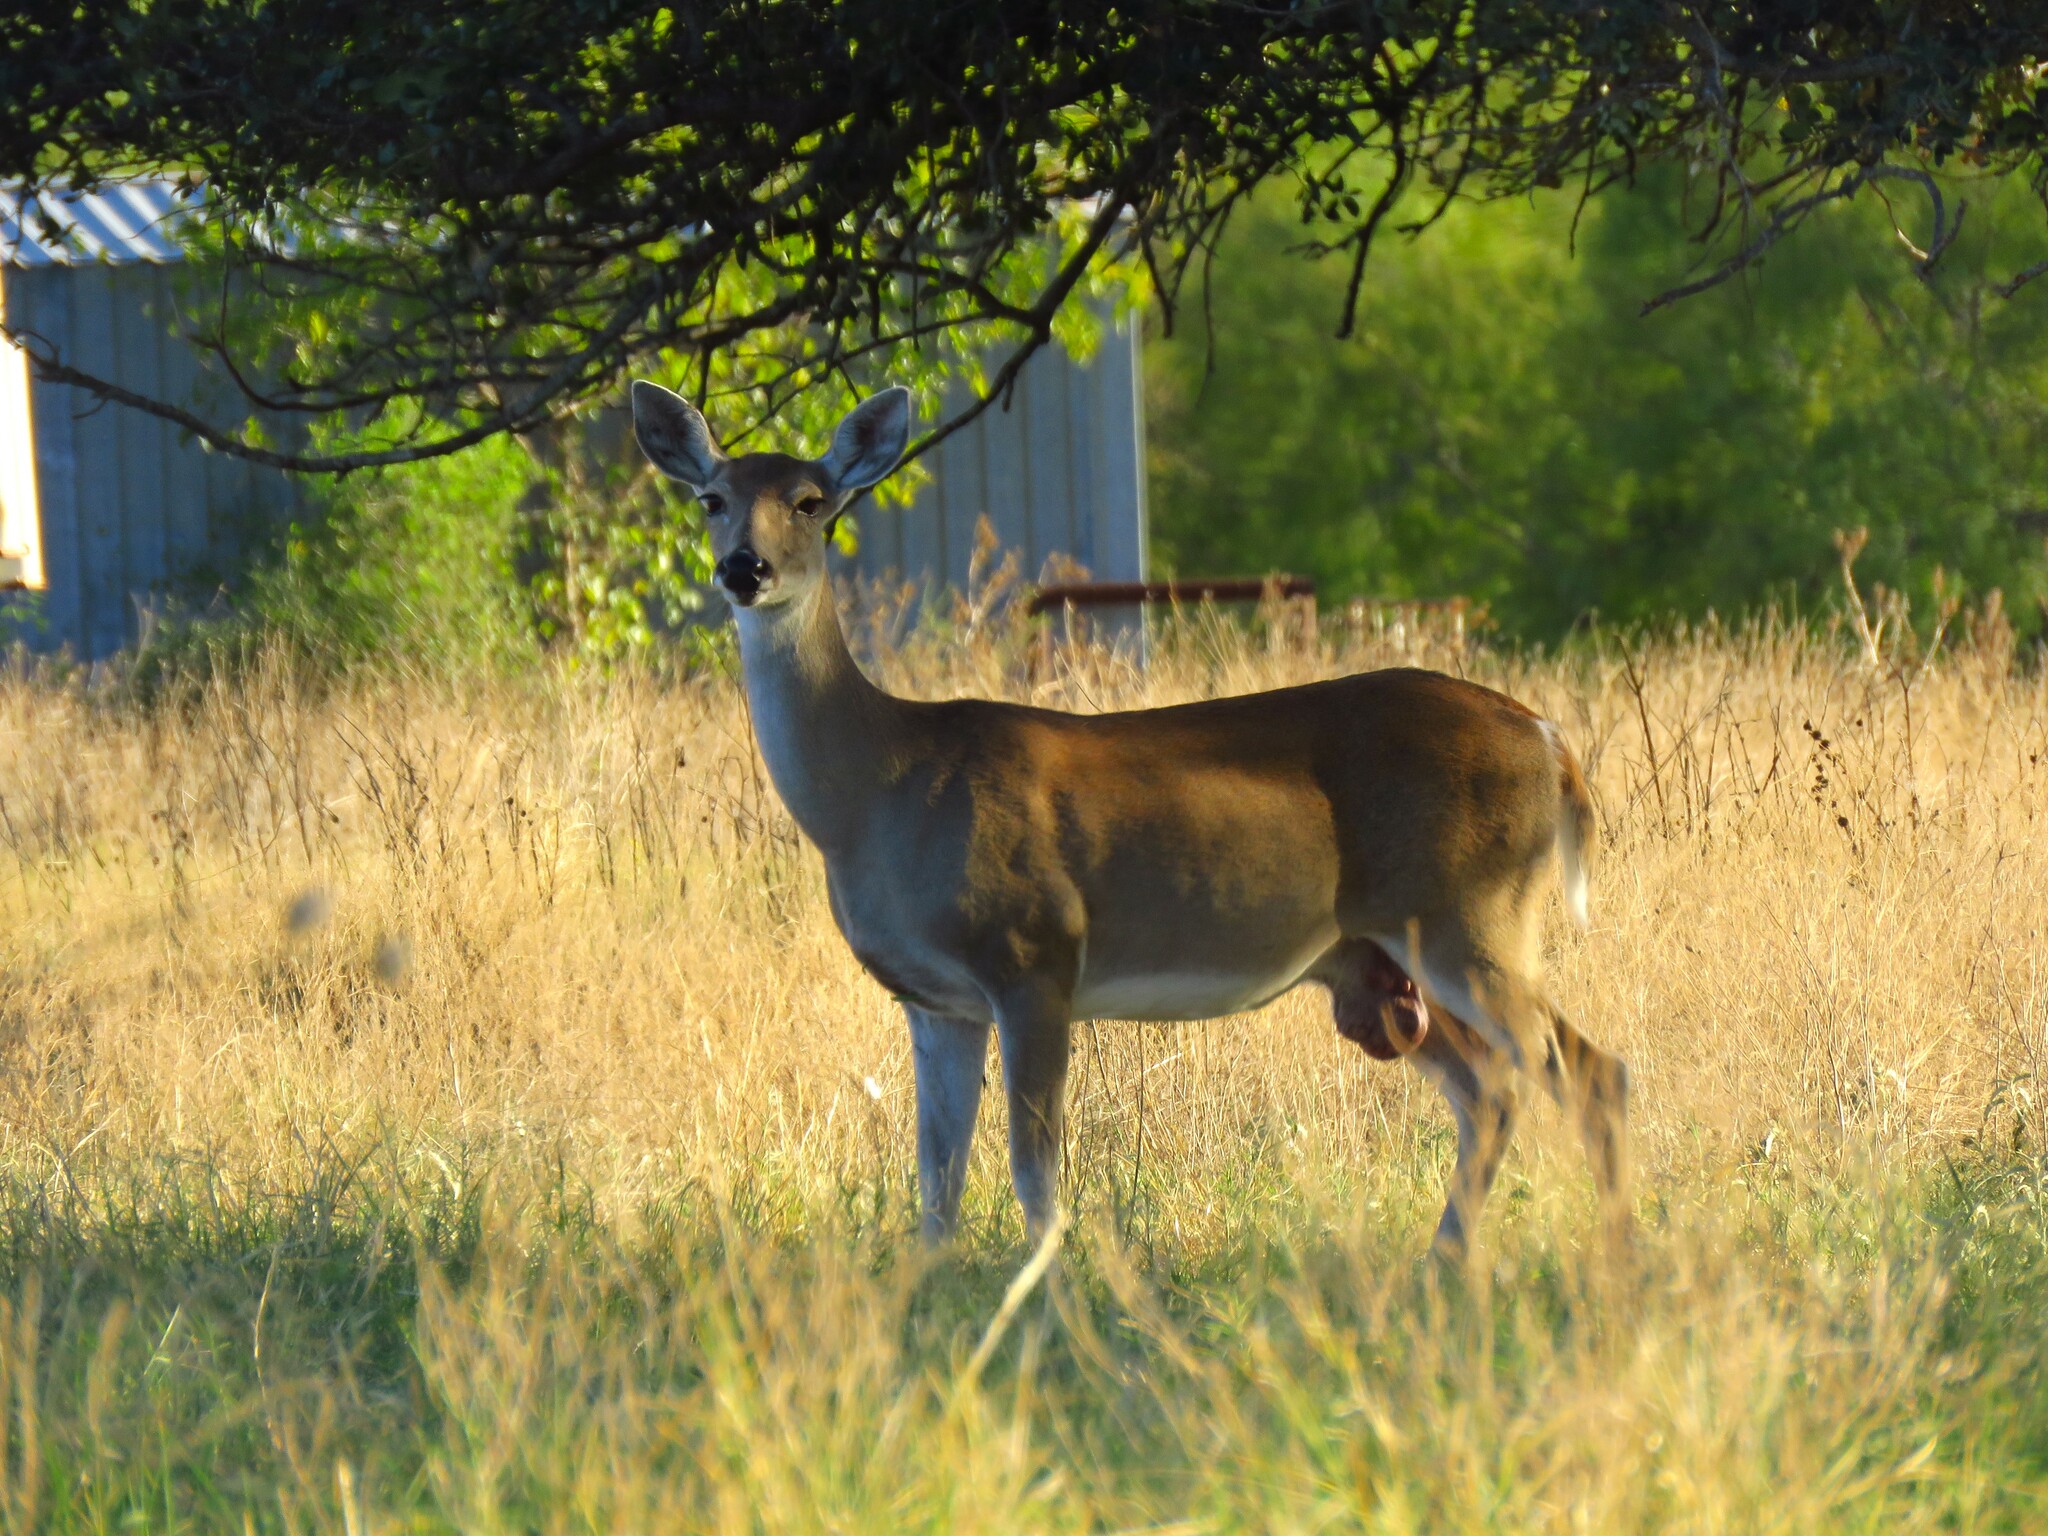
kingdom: Animalia
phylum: Chordata
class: Mammalia
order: Artiodactyla
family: Cervidae
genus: Odocoileus
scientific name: Odocoileus virginianus
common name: White-tailed deer
